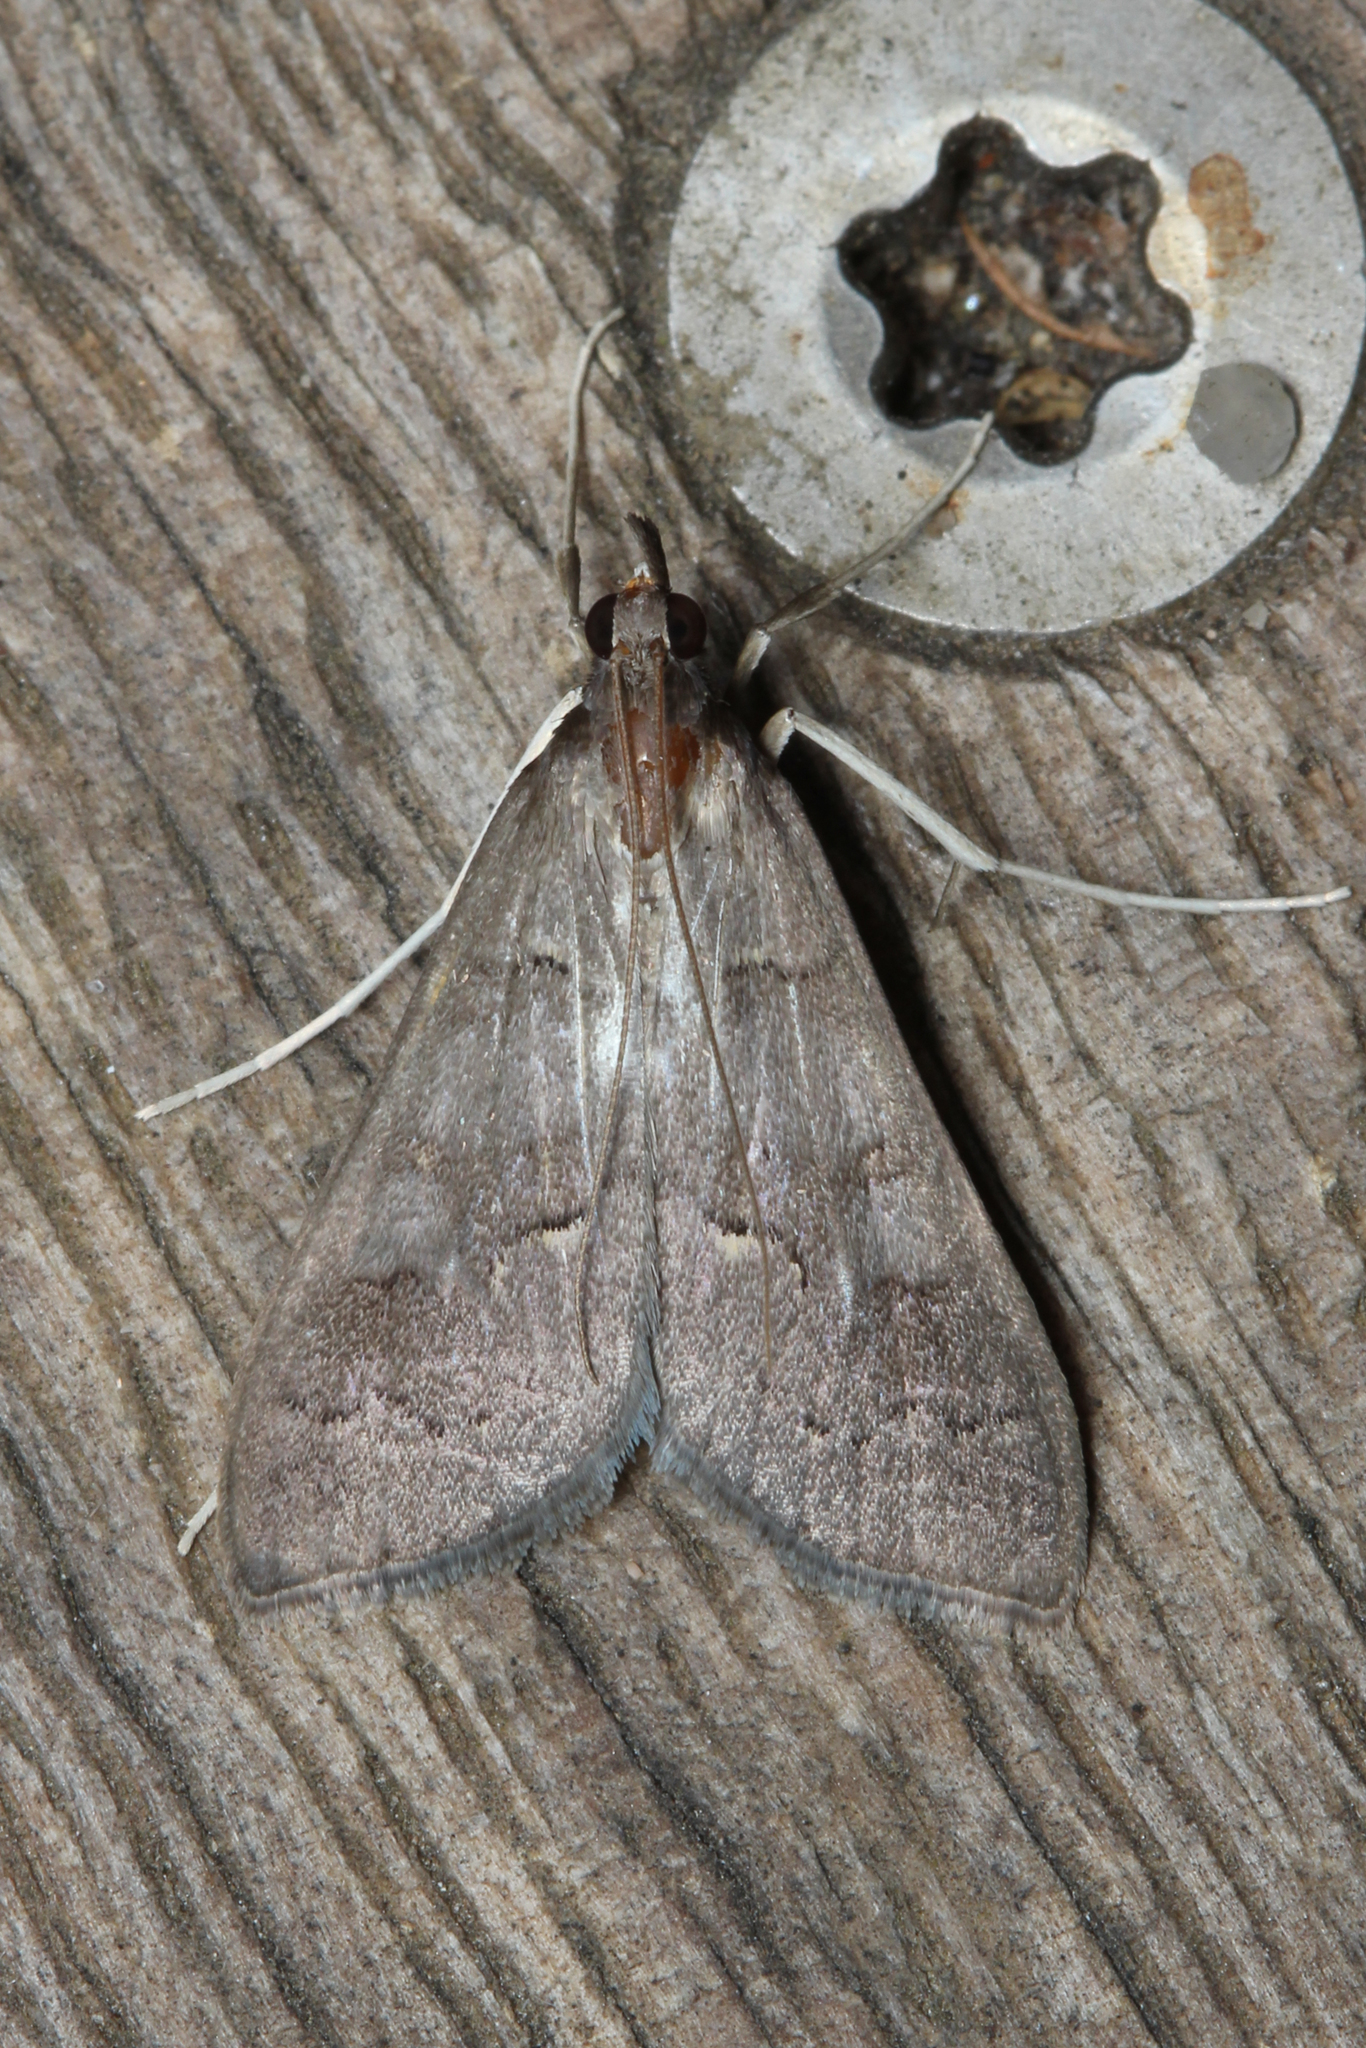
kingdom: Animalia
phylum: Arthropoda
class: Insecta
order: Lepidoptera
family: Crambidae
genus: Mecyna
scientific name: Mecyna asinalis
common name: Coastal pearl
